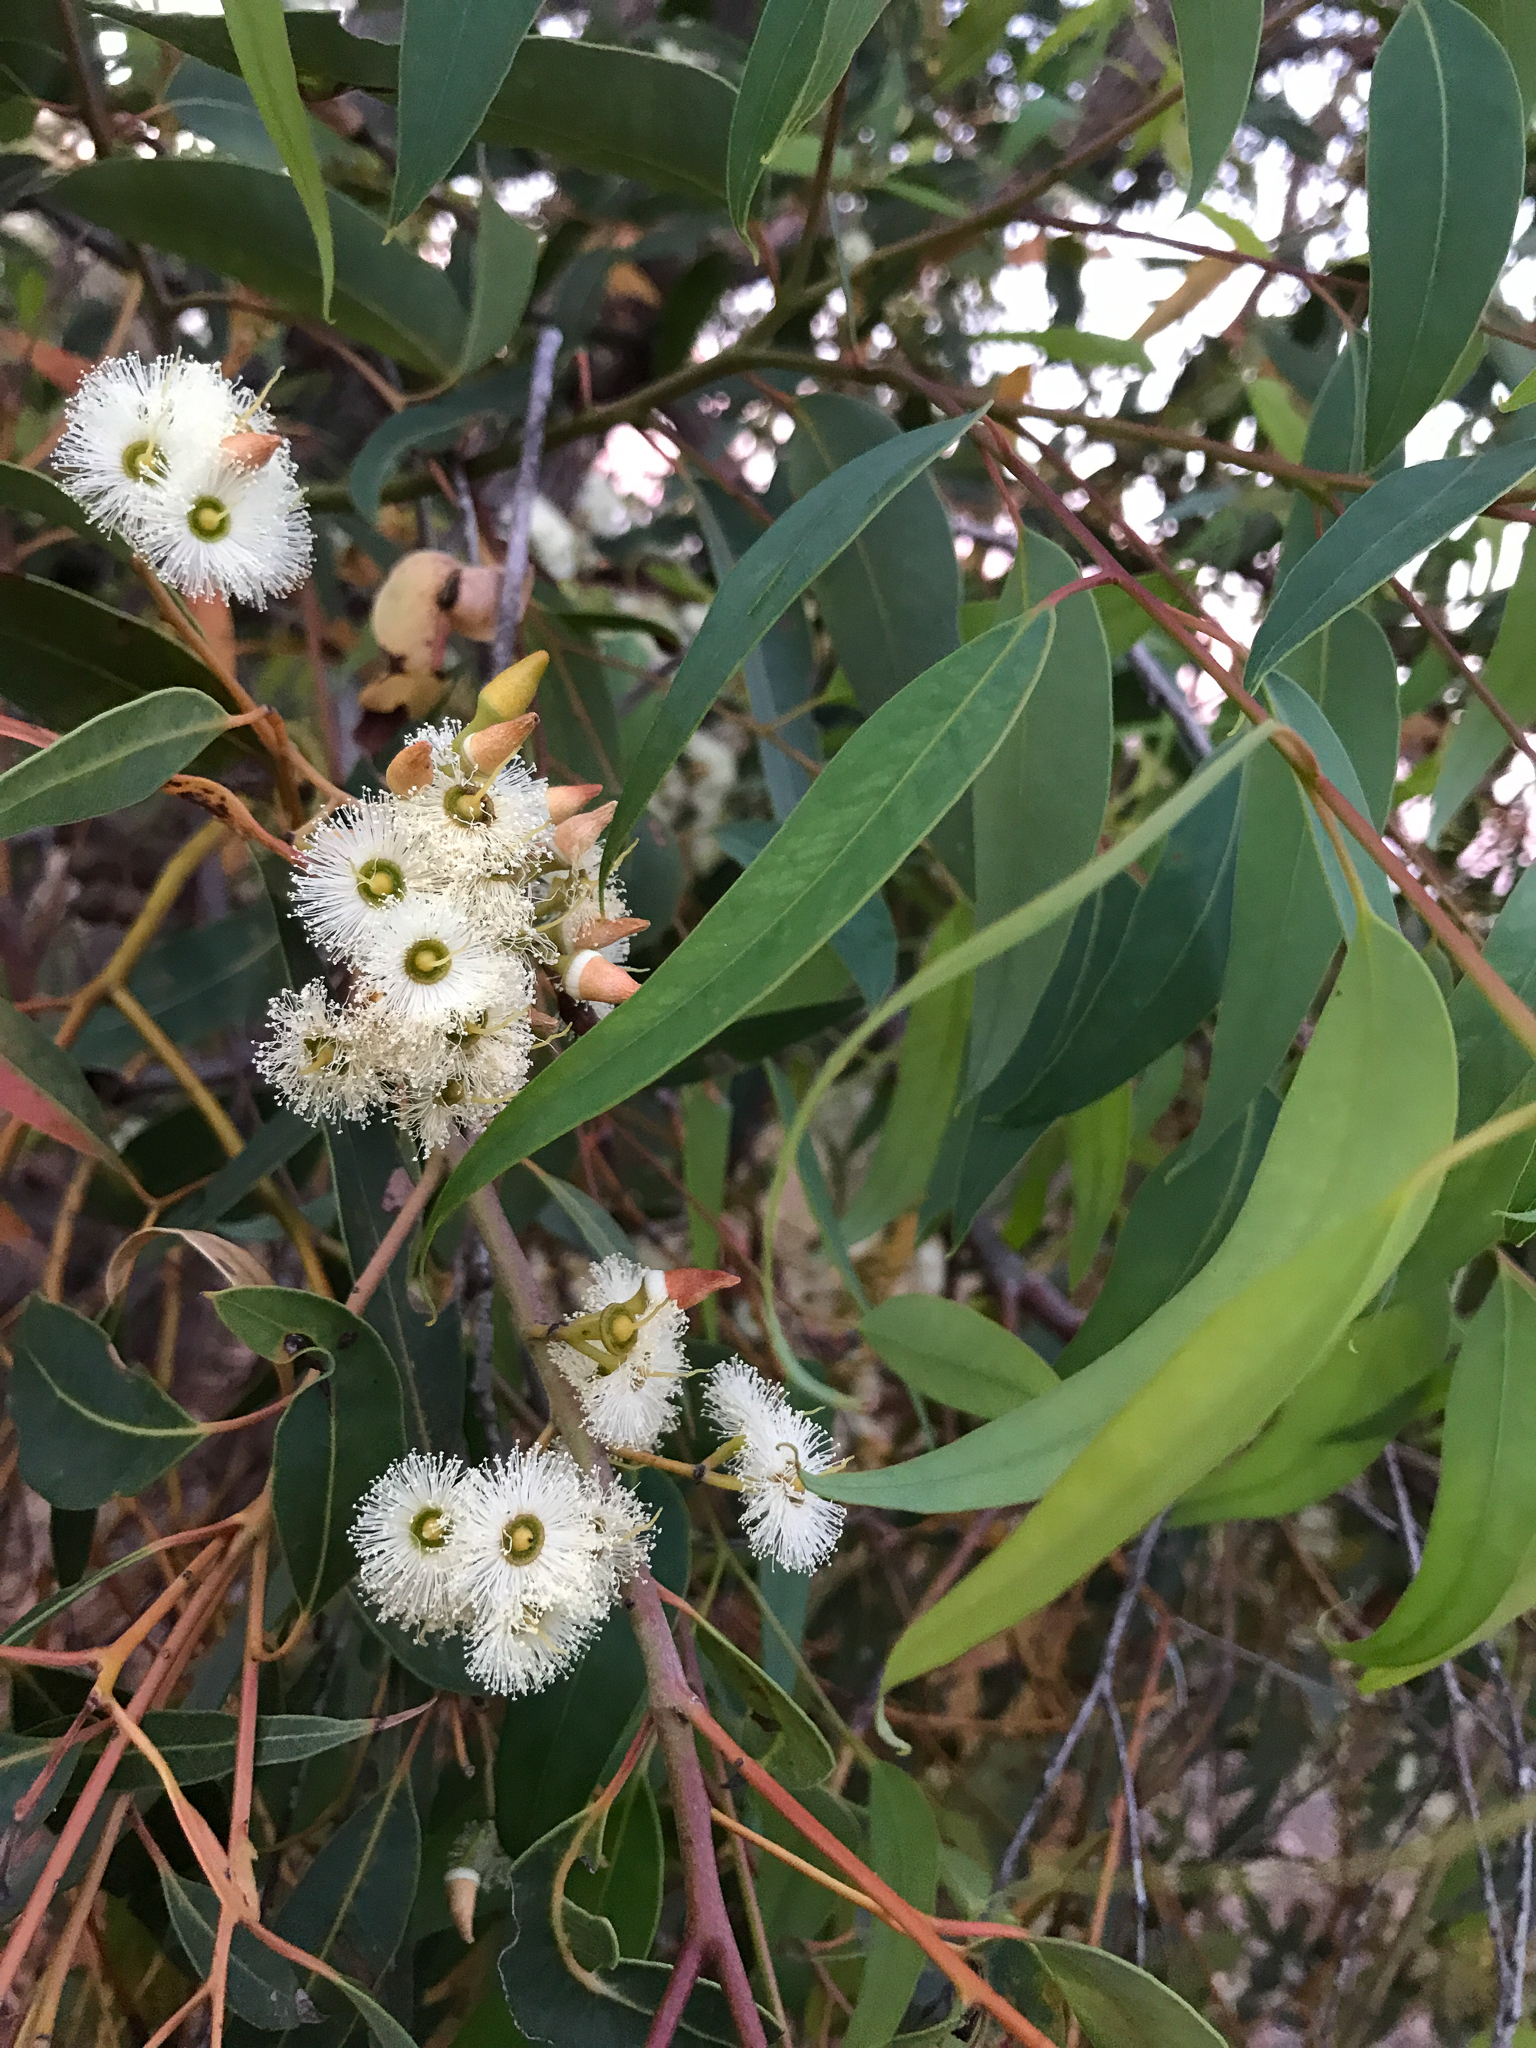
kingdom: Plantae
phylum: Tracheophyta
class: Magnoliopsida
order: Myrtales
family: Myrtaceae
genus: Eucalyptus
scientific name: Eucalyptus marginata
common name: Jarrah
